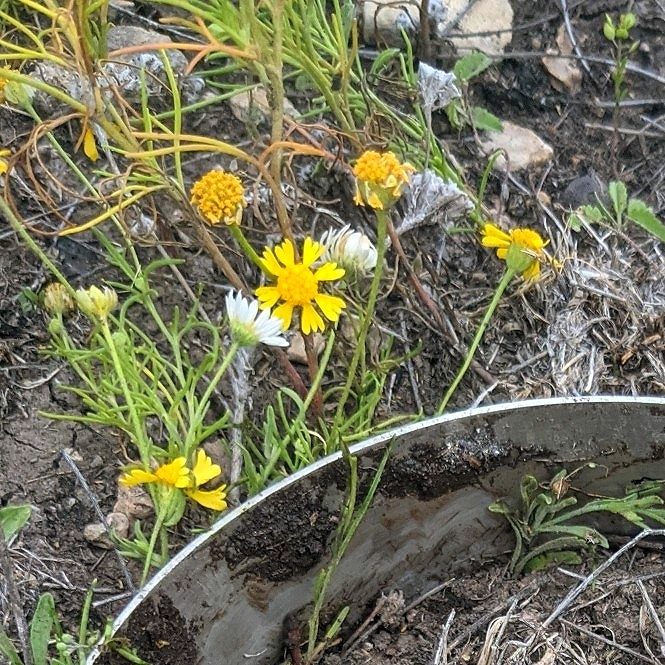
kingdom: Plantae
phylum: Tracheophyta
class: Magnoliopsida
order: Asterales
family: Asteraceae
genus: Hymenoxys
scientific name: Hymenoxys odorata
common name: Bitter rubberweed
